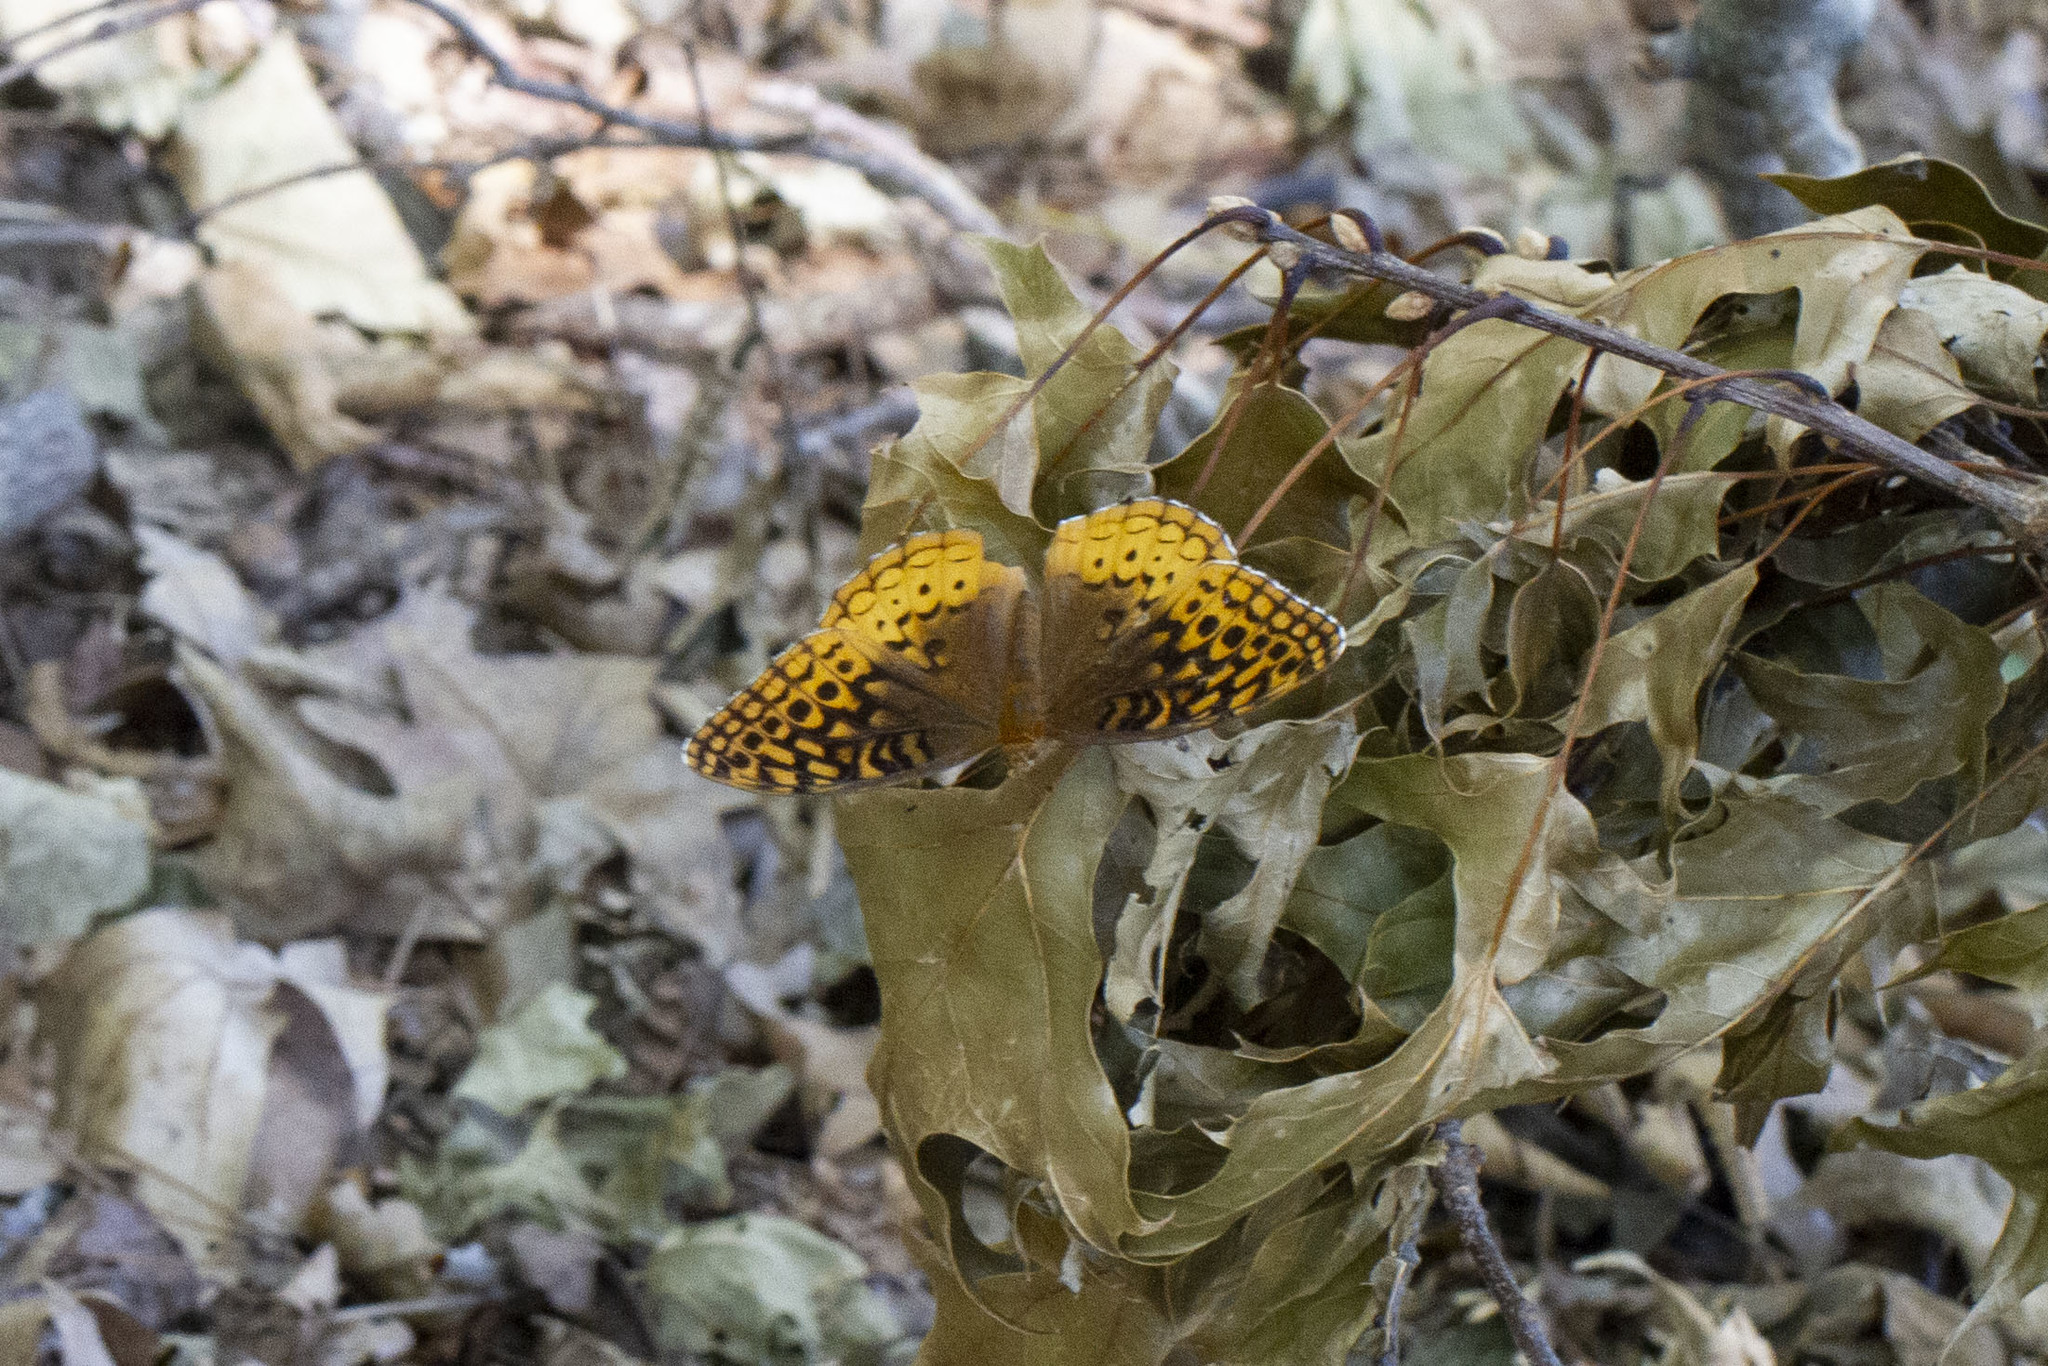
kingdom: Animalia
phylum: Arthropoda
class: Insecta
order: Lepidoptera
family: Nymphalidae
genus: Speyeria
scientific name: Speyeria cybele
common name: Great spangled fritillary
